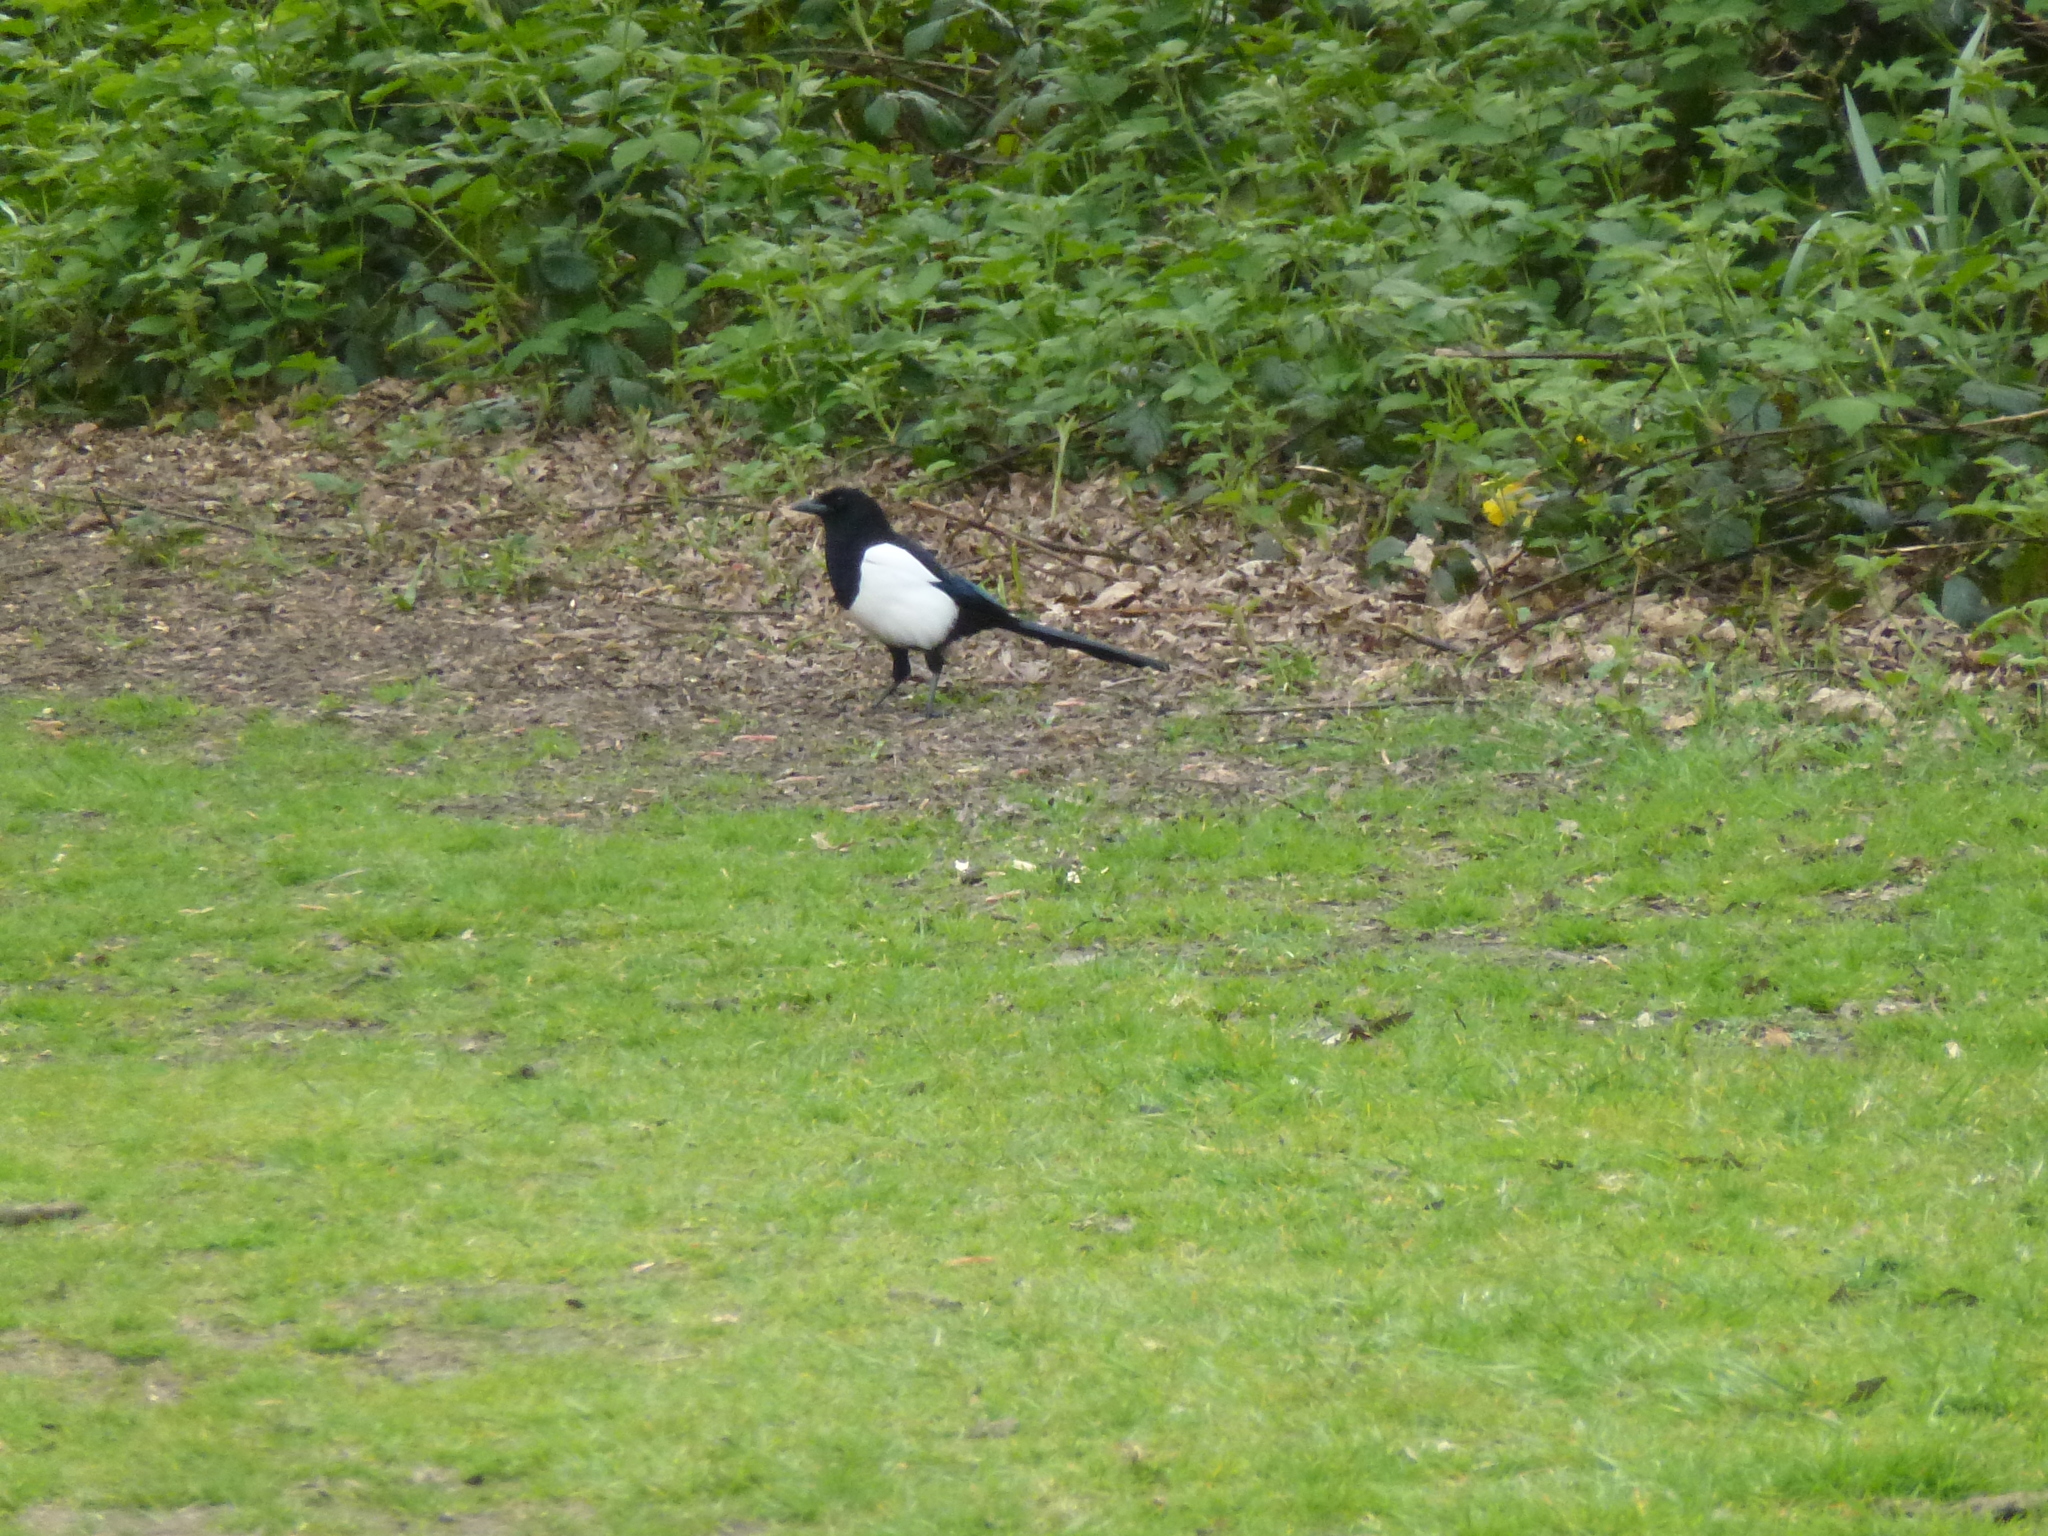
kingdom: Animalia
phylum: Chordata
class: Aves
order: Passeriformes
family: Corvidae
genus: Pica
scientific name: Pica pica
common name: Eurasian magpie
